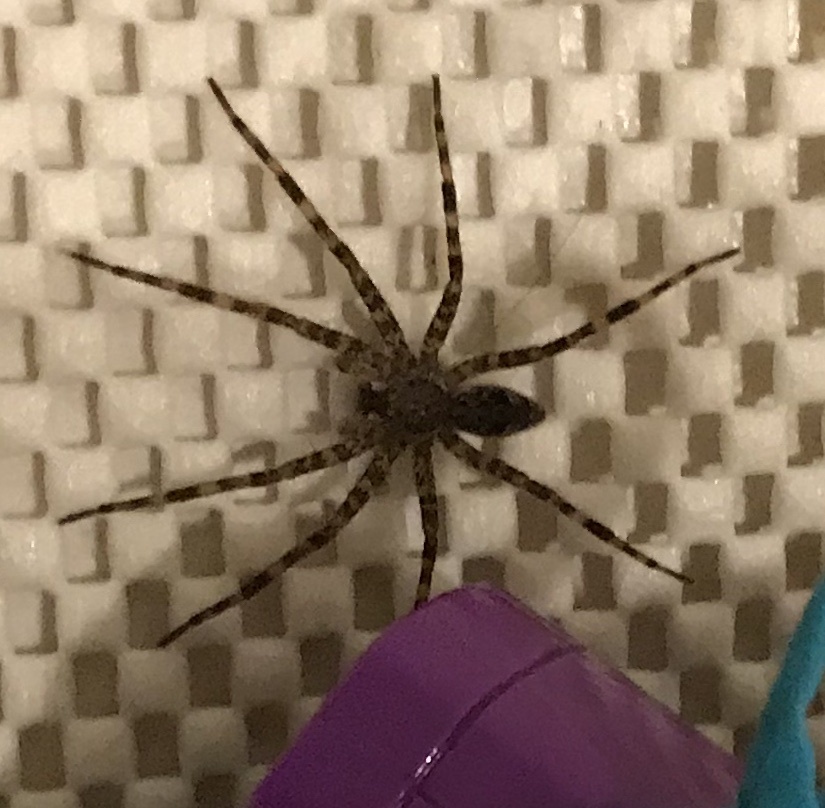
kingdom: Animalia
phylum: Arthropoda
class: Arachnida
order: Araneae
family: Pisauridae
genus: Dolomedes
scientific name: Dolomedes tenebrosus
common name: Dark fishing spider
